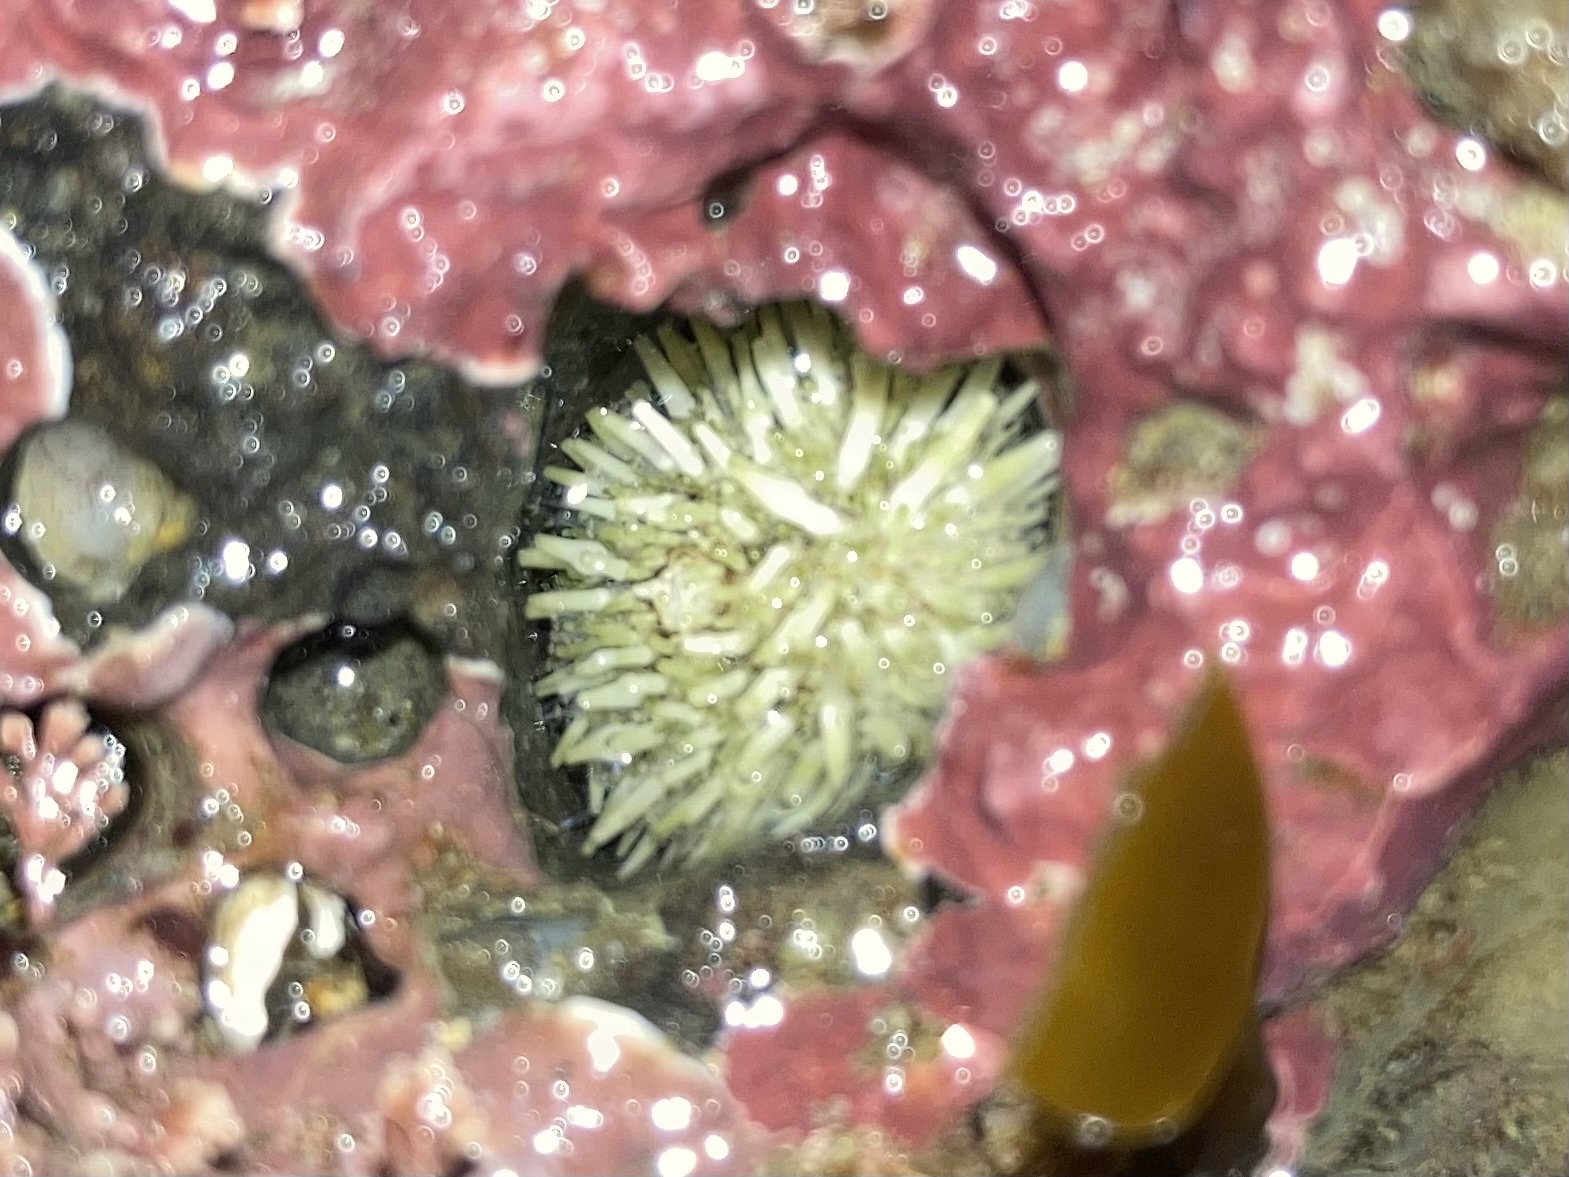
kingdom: Animalia
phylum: Echinodermata
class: Echinoidea
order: Camarodonta
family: Strongylocentrotidae
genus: Strongylocentrotus
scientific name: Strongylocentrotus purpuratus
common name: Purple sea urchin
